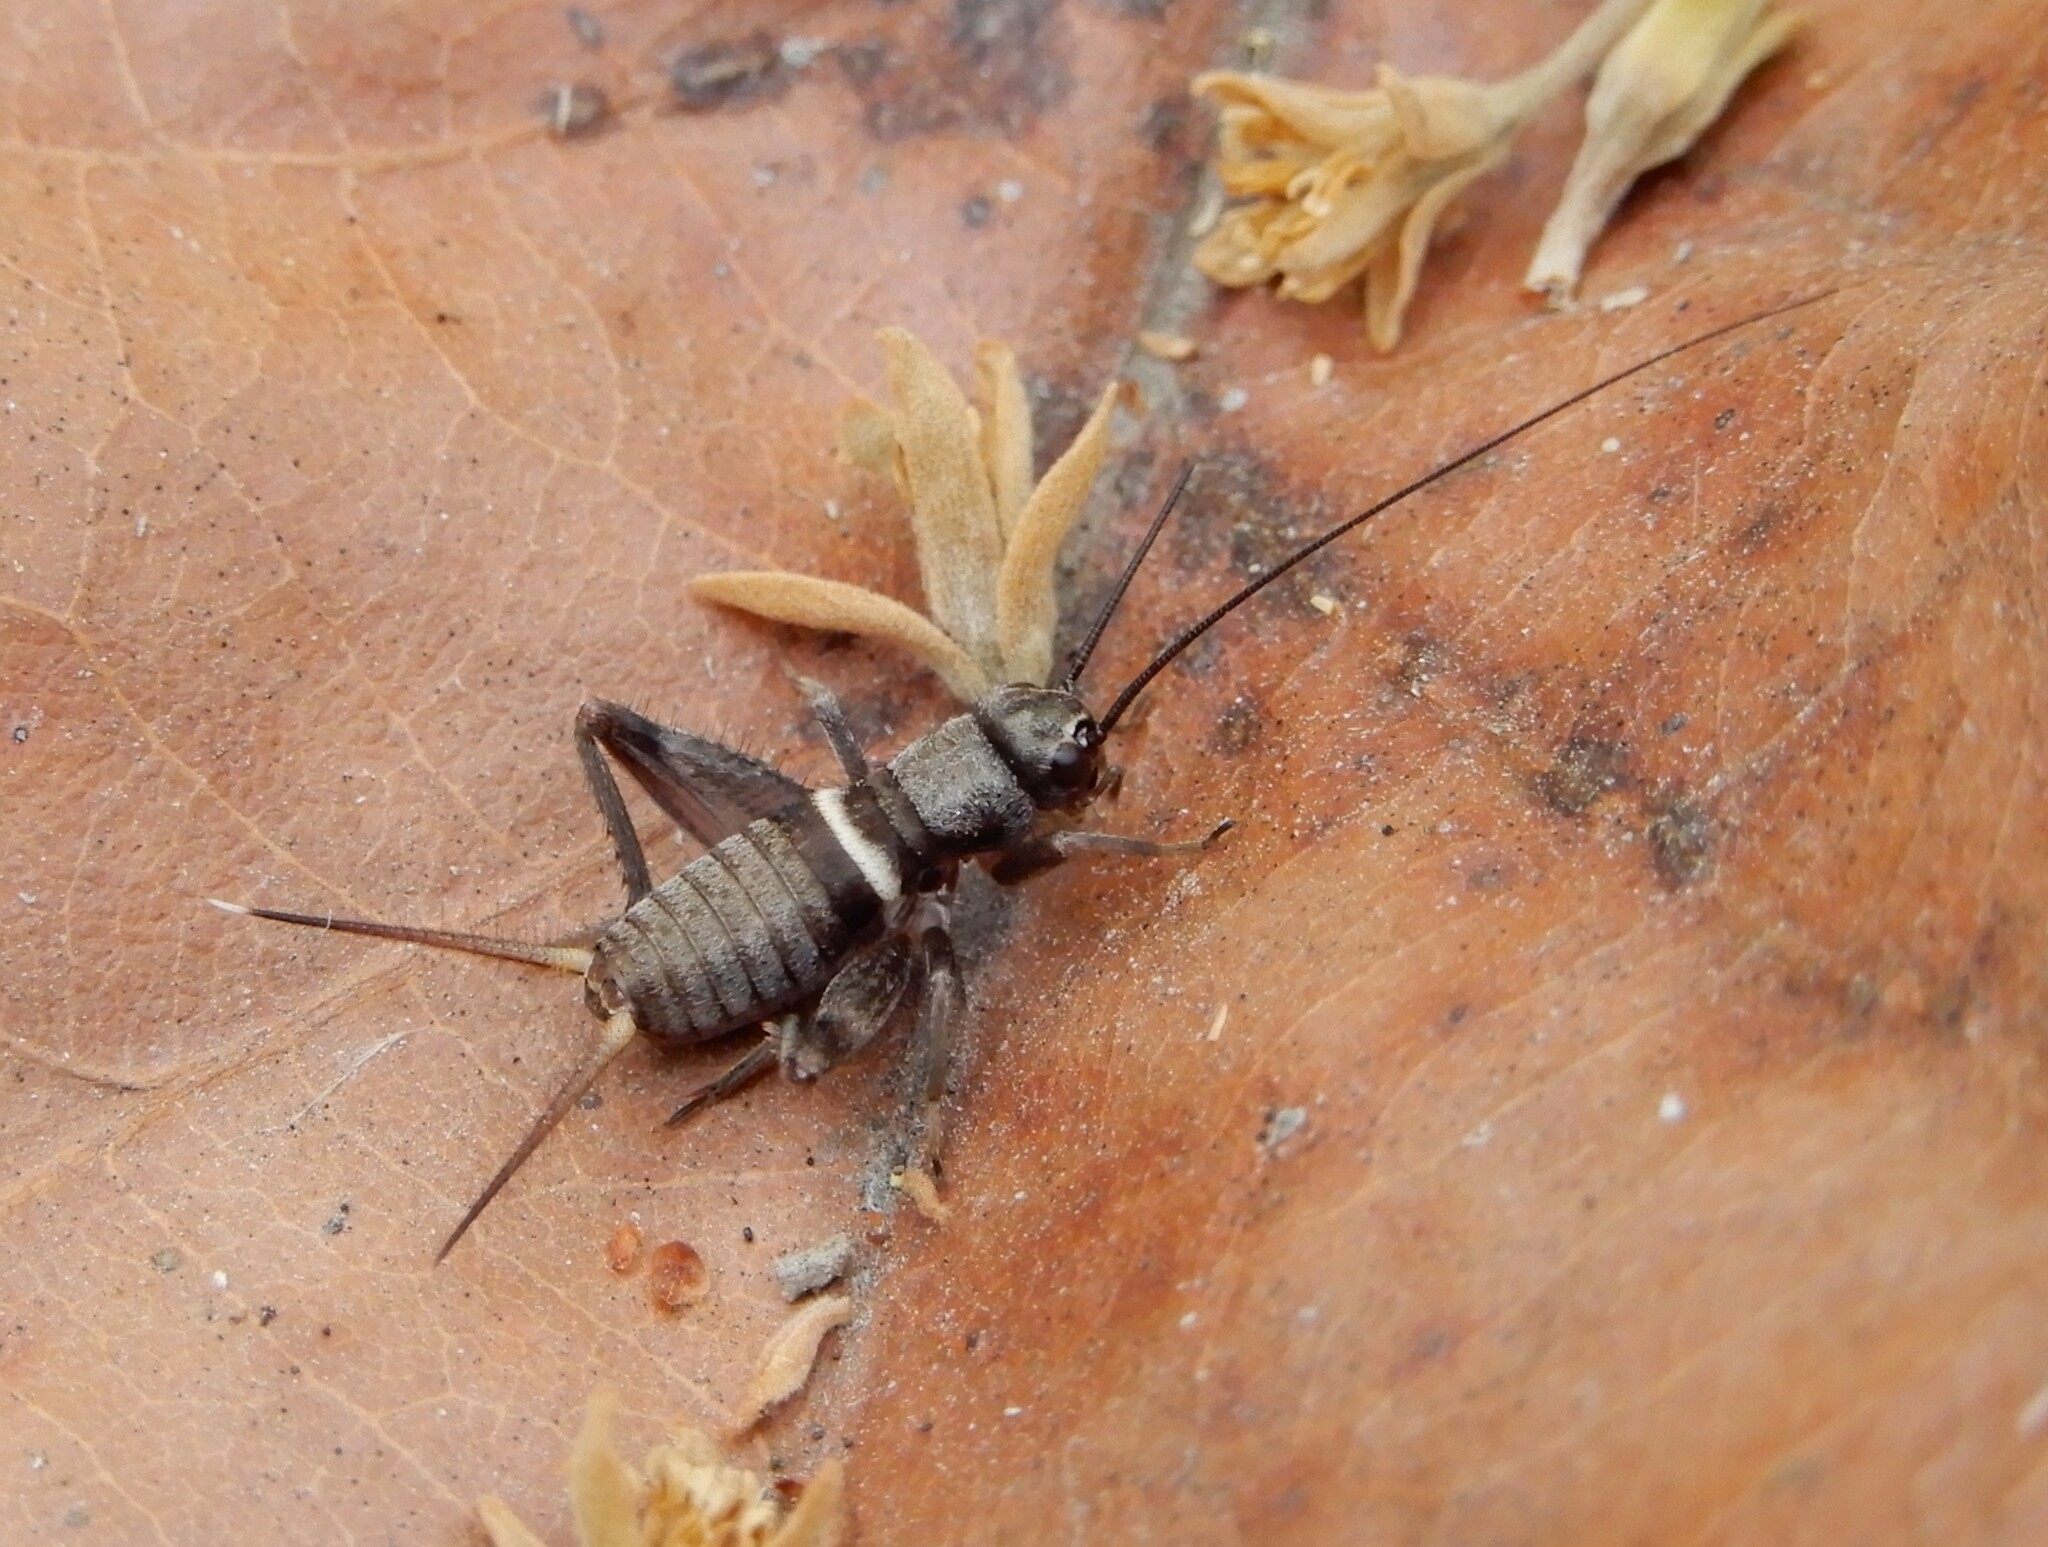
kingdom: Animalia
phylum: Arthropoda
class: Insecta
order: Orthoptera
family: Gryllidae
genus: Teleogryllus
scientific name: Teleogryllus mitratus
